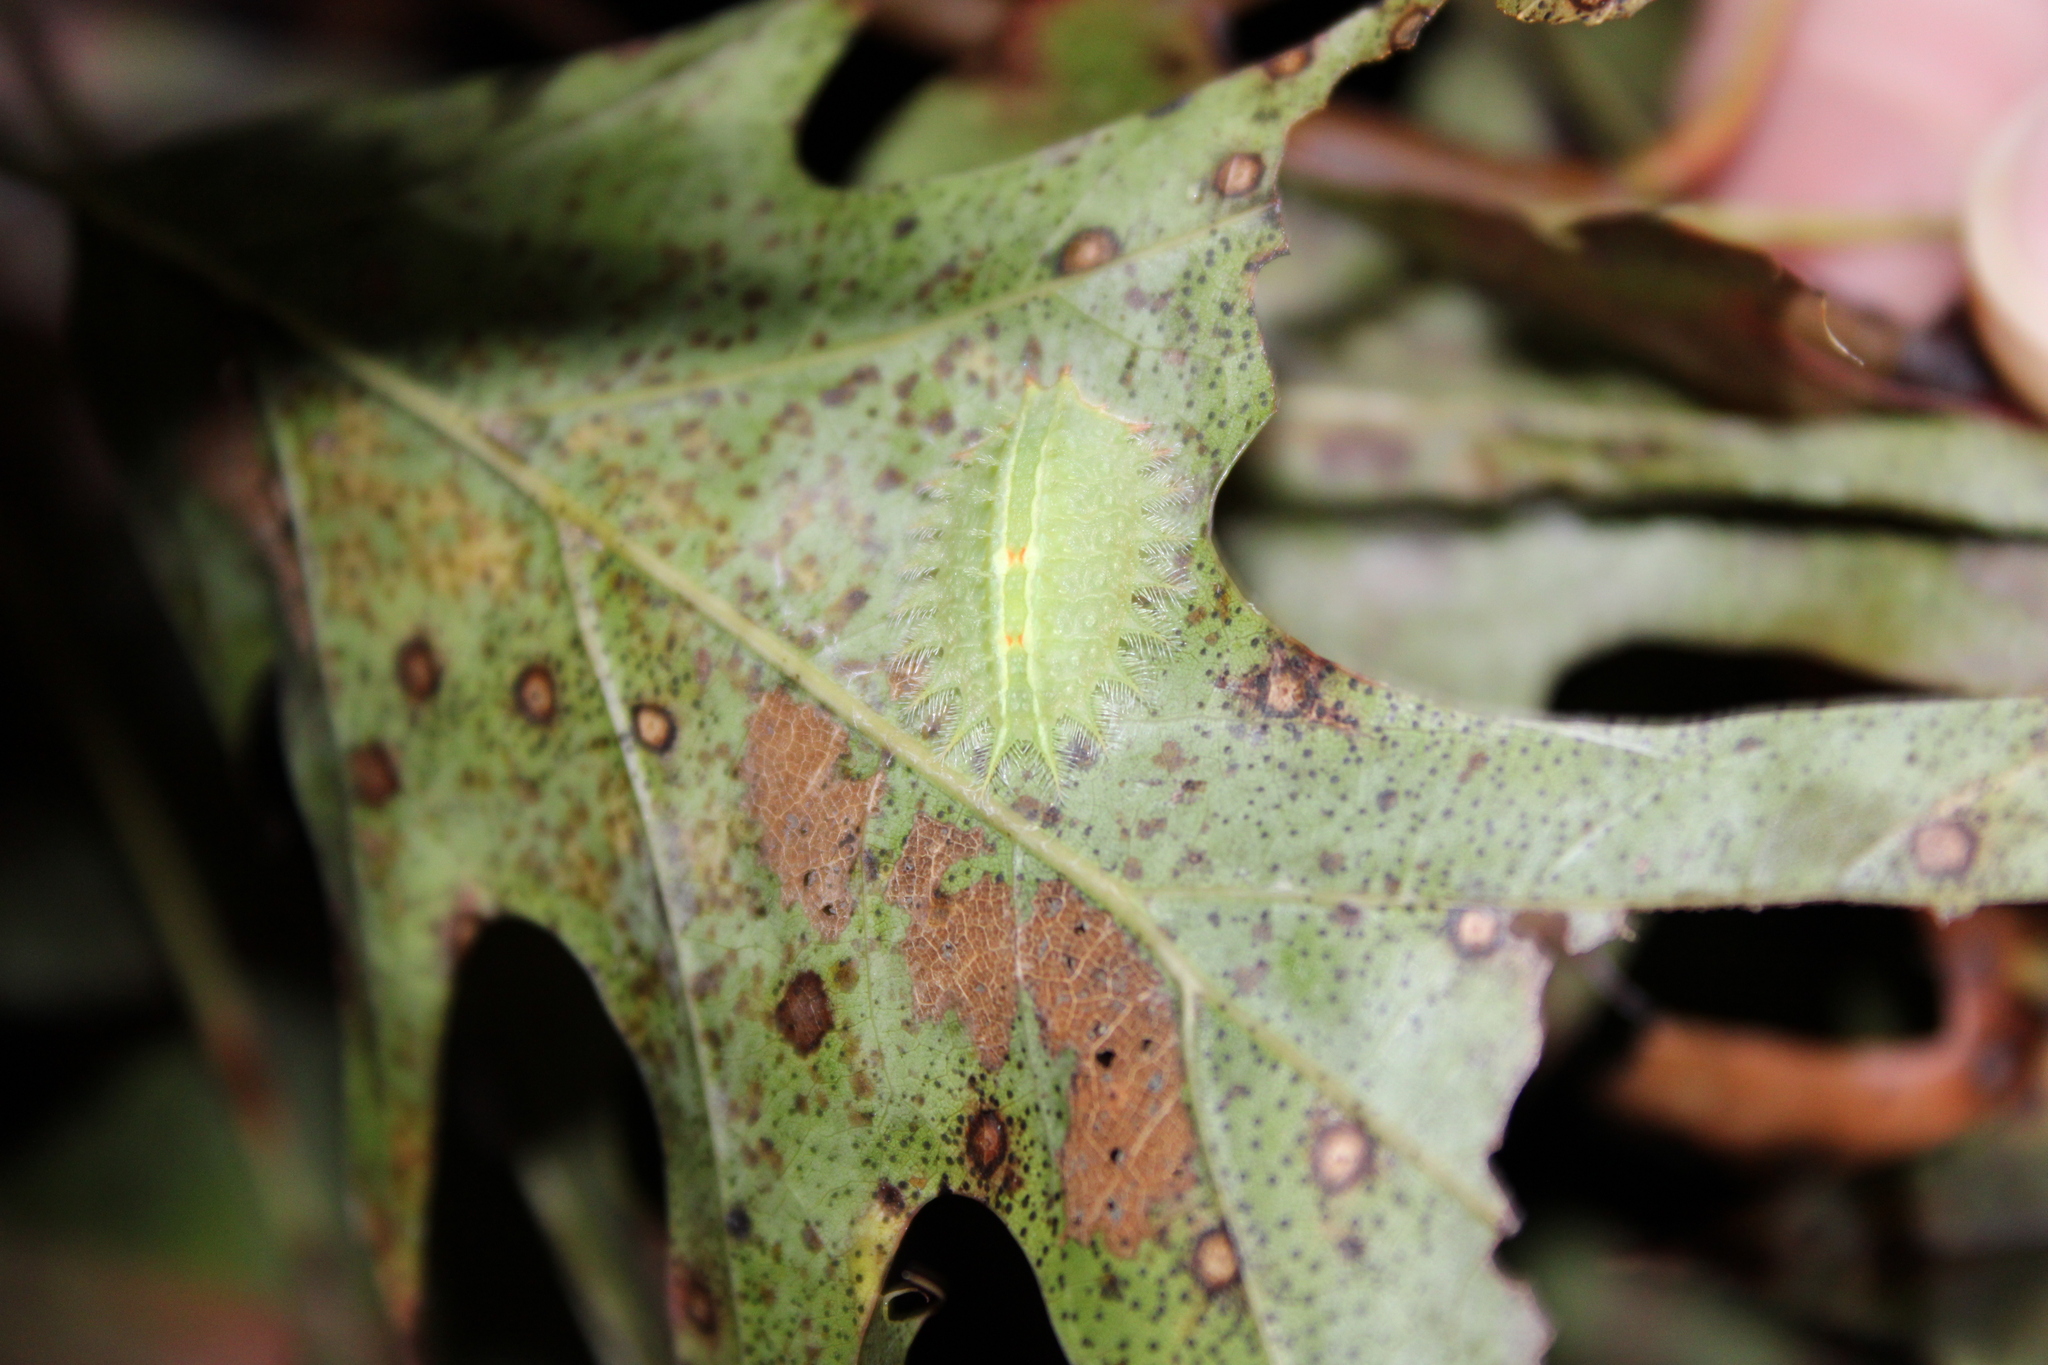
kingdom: Animalia
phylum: Arthropoda
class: Insecta
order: Lepidoptera
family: Limacodidae
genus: Isa
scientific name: Isa textula
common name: Crowned slug moth
